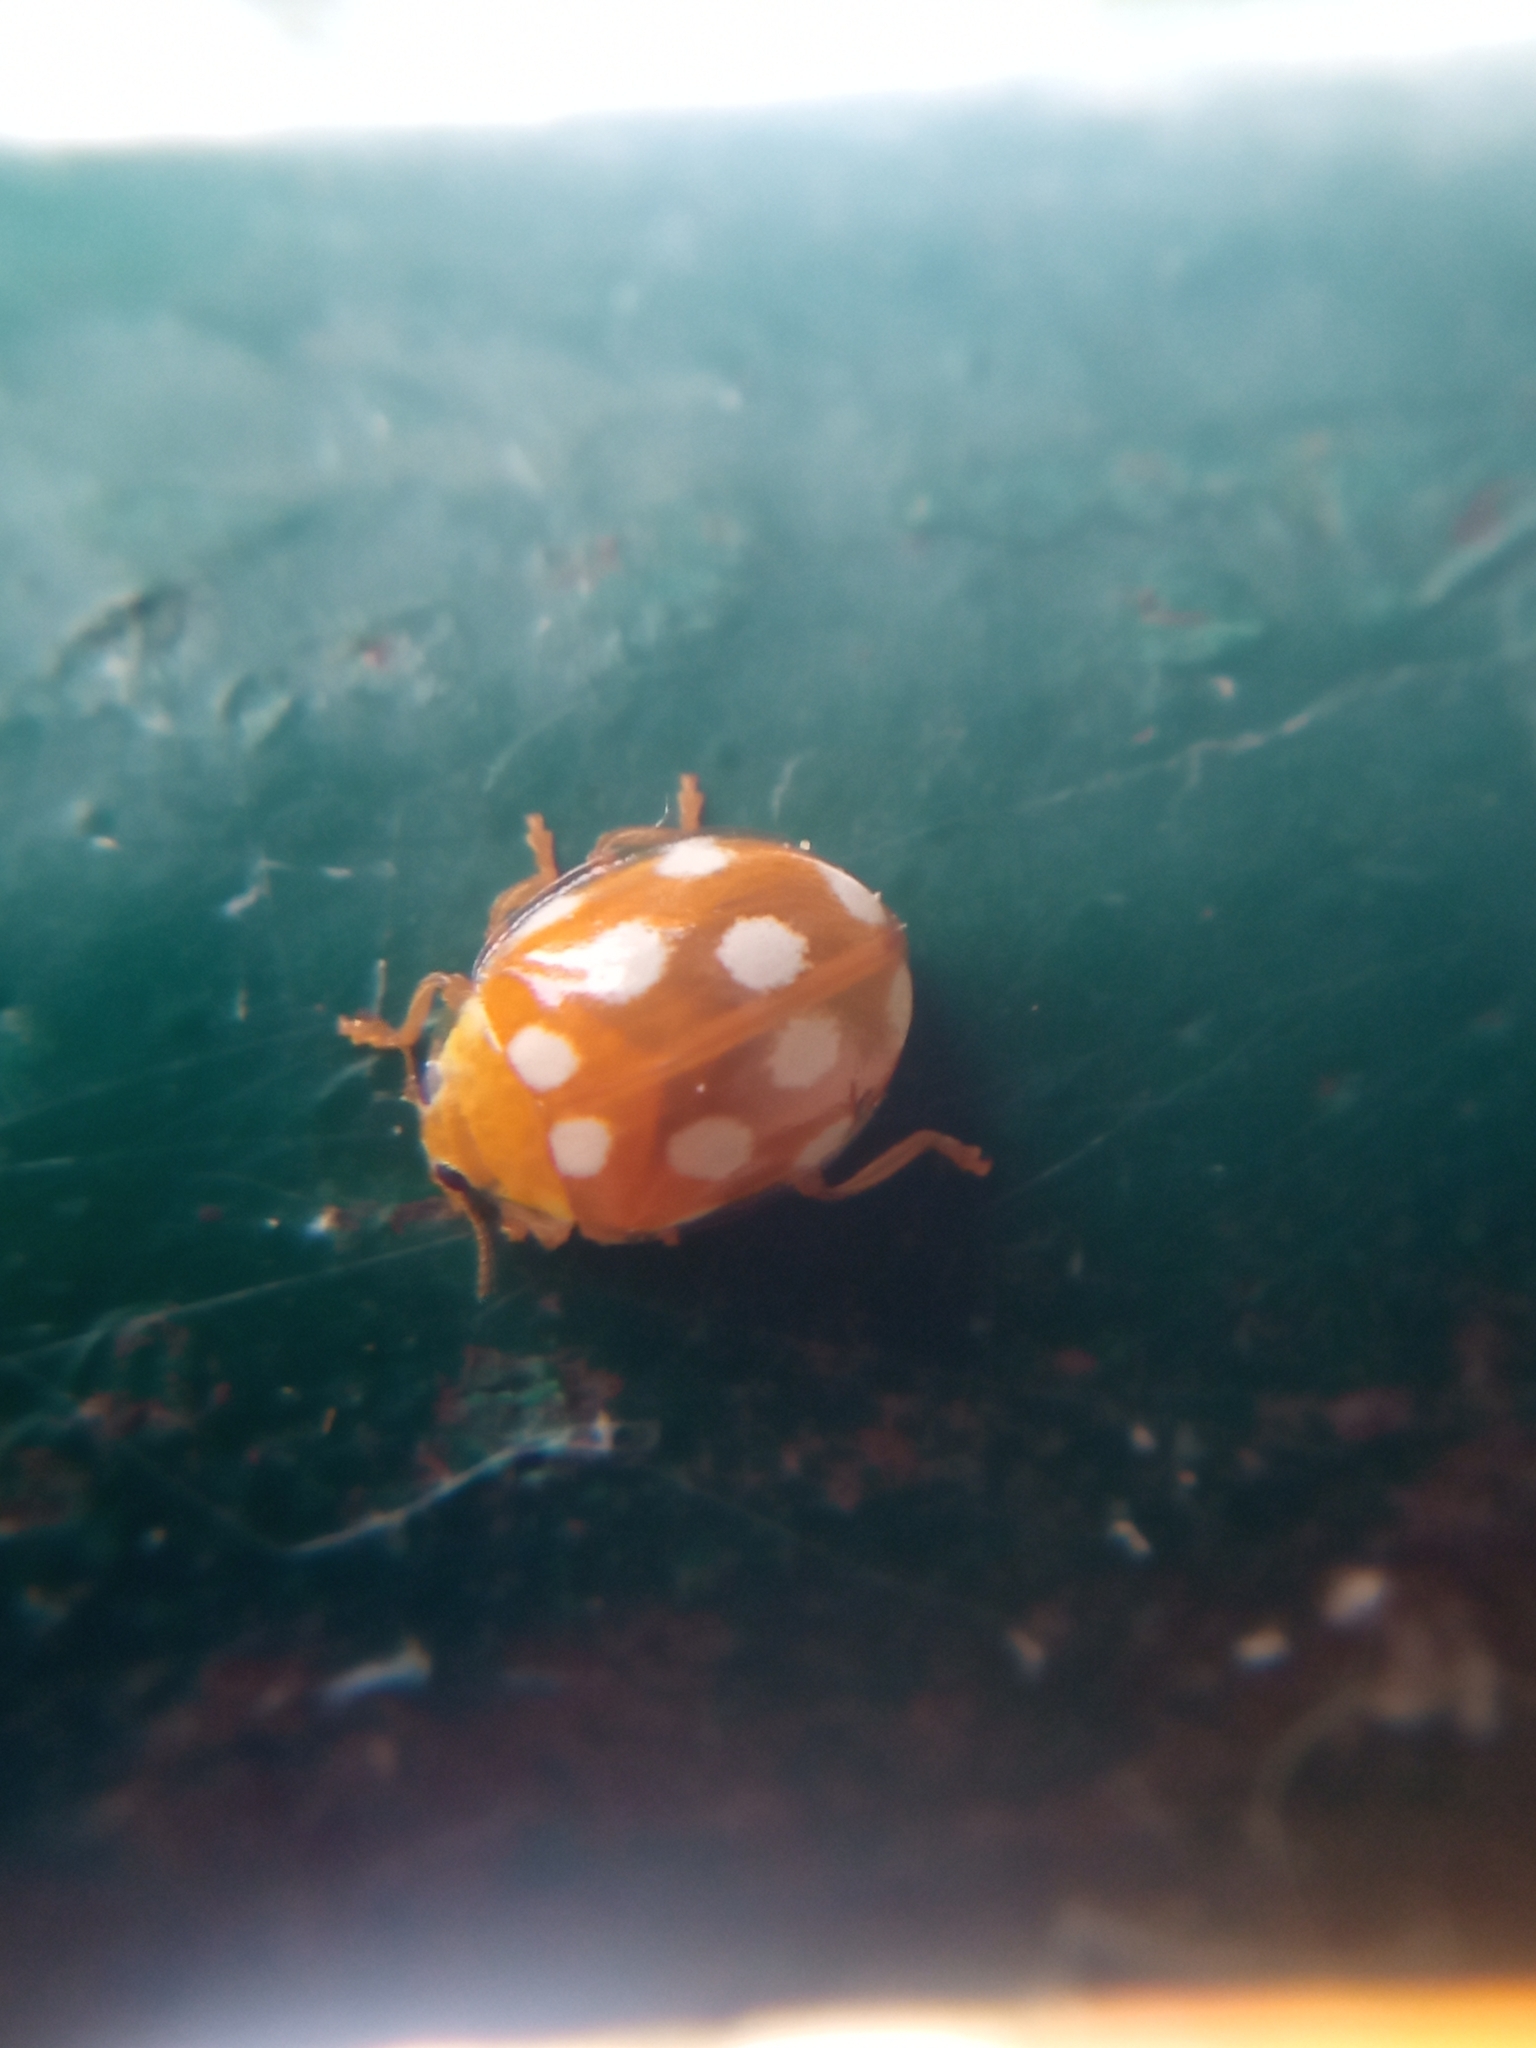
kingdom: Animalia
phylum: Arthropoda
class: Insecta
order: Coleoptera
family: Coccinellidae
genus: Vibidia
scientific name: Vibidia duodecimguttata
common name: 12-spot ladybird
